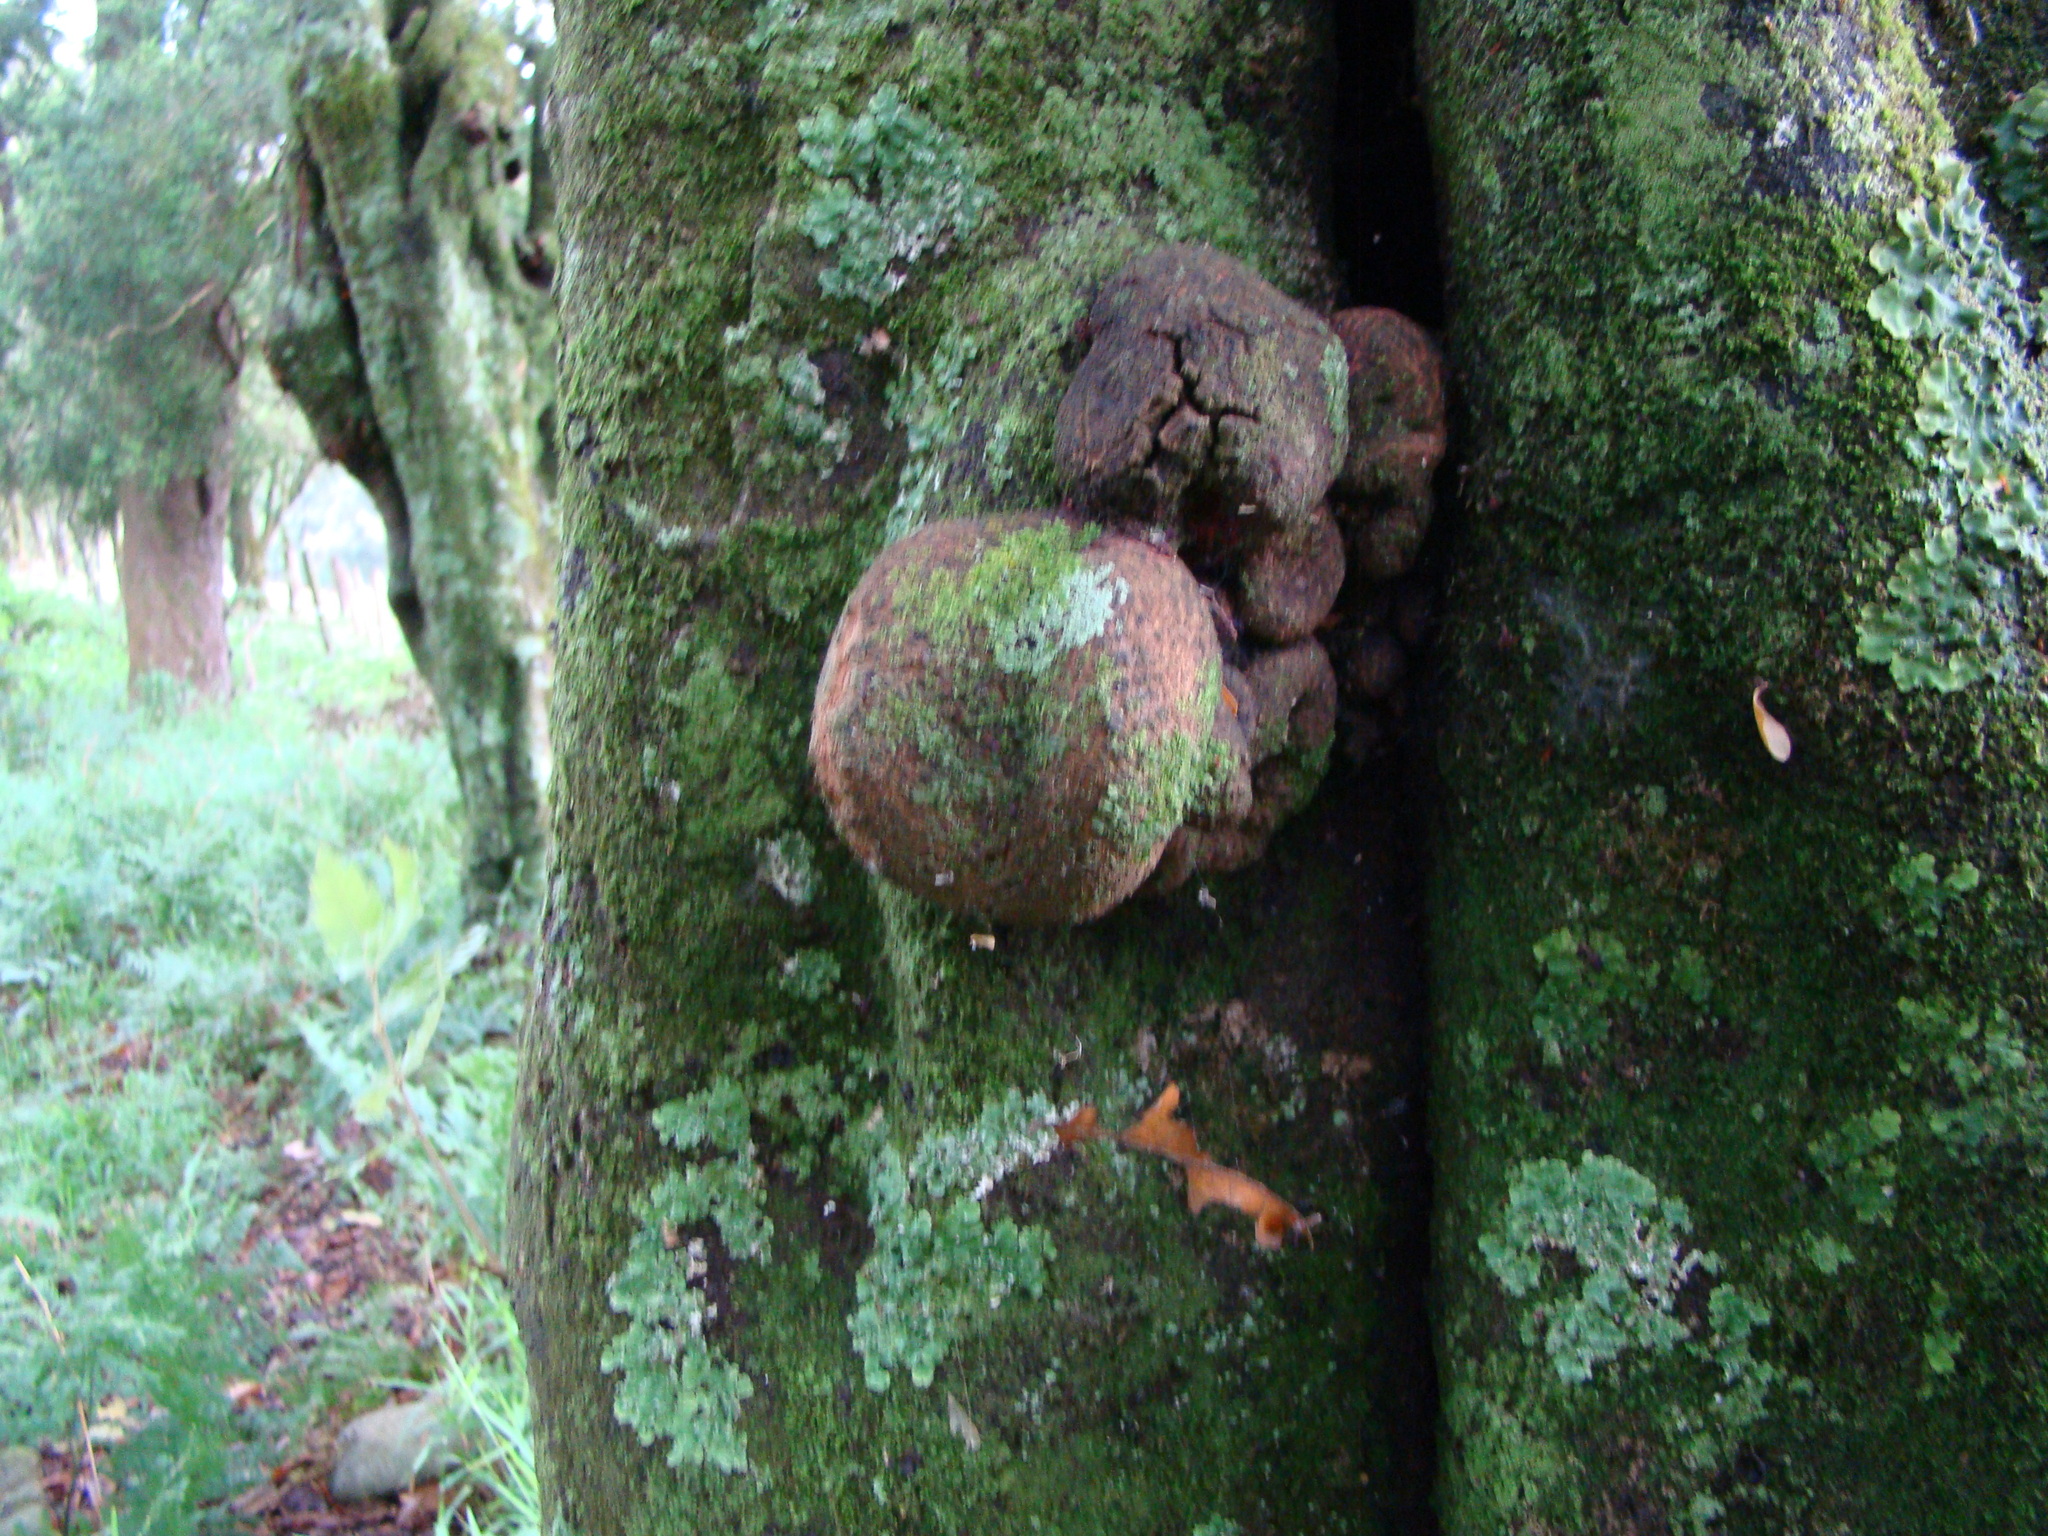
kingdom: Plantae
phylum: Tracheophyta
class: Magnoliopsida
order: Sapindales
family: Sapindaceae
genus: Alectryon
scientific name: Alectryon excelsus
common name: Three kings titoki
